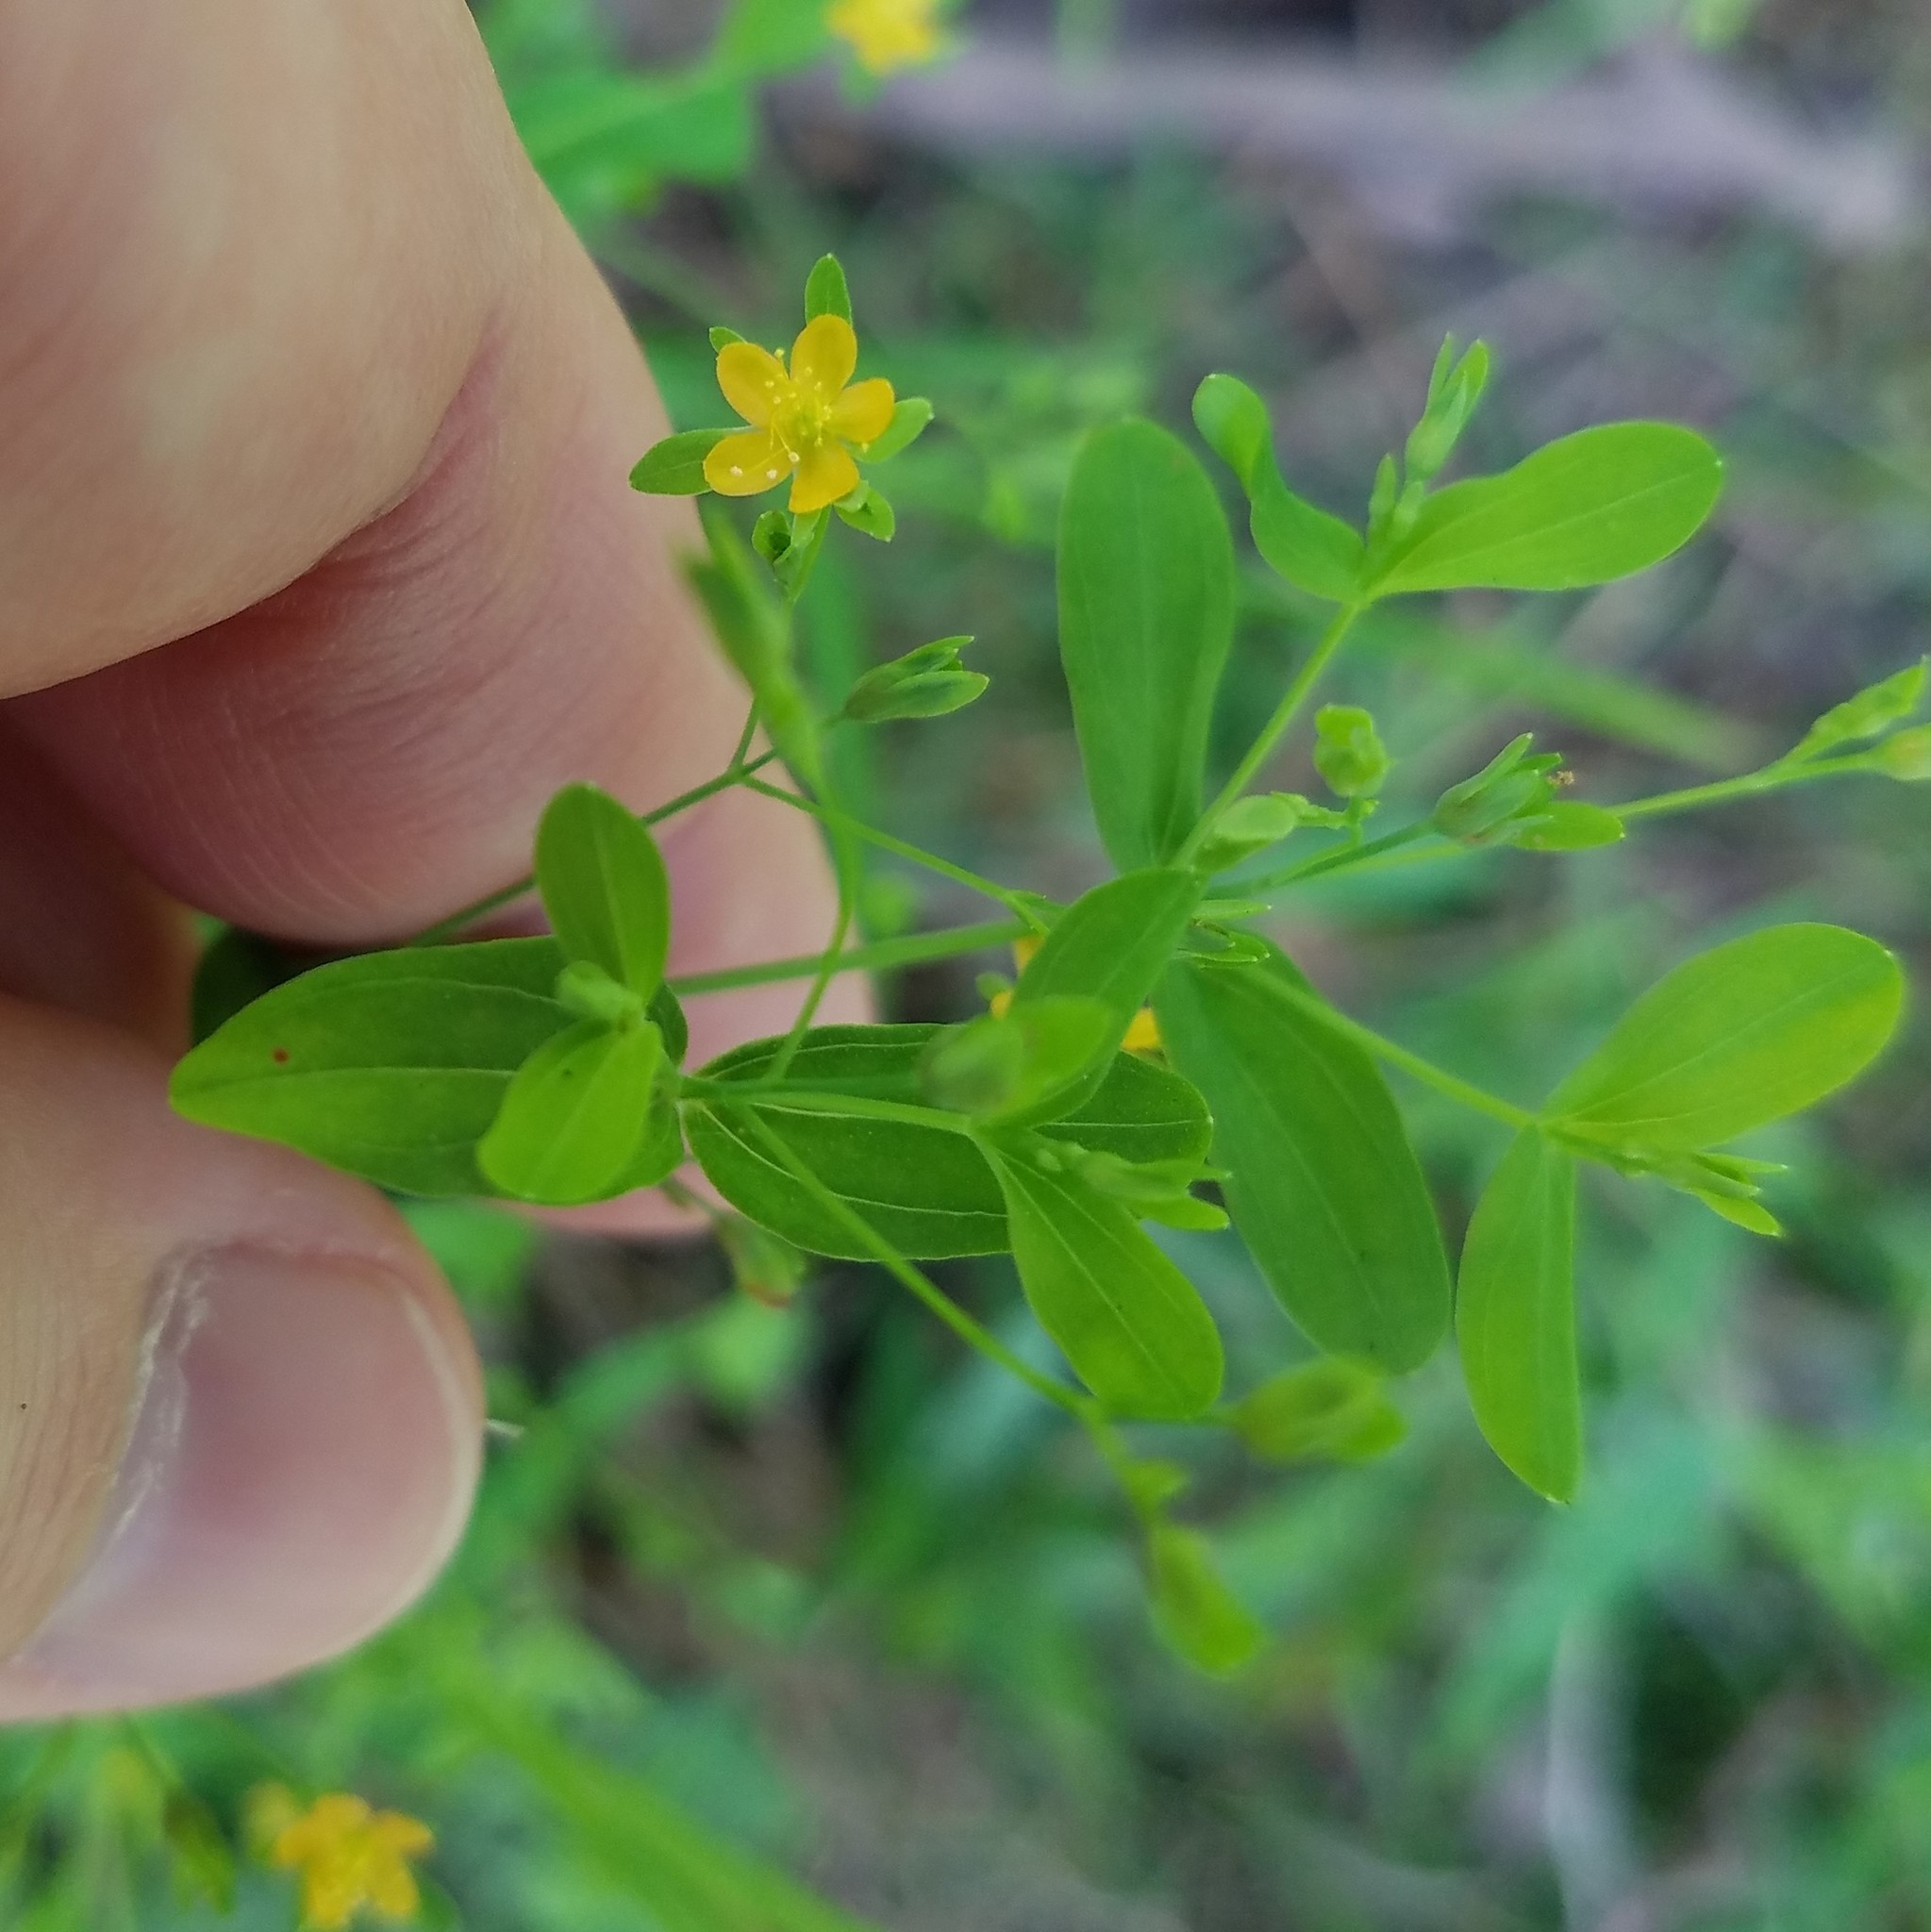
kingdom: Plantae
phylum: Tracheophyta
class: Magnoliopsida
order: Malpighiales
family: Hypericaceae
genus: Hypericum
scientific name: Hypericum mutilum
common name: Dwarf st. john's-wort
